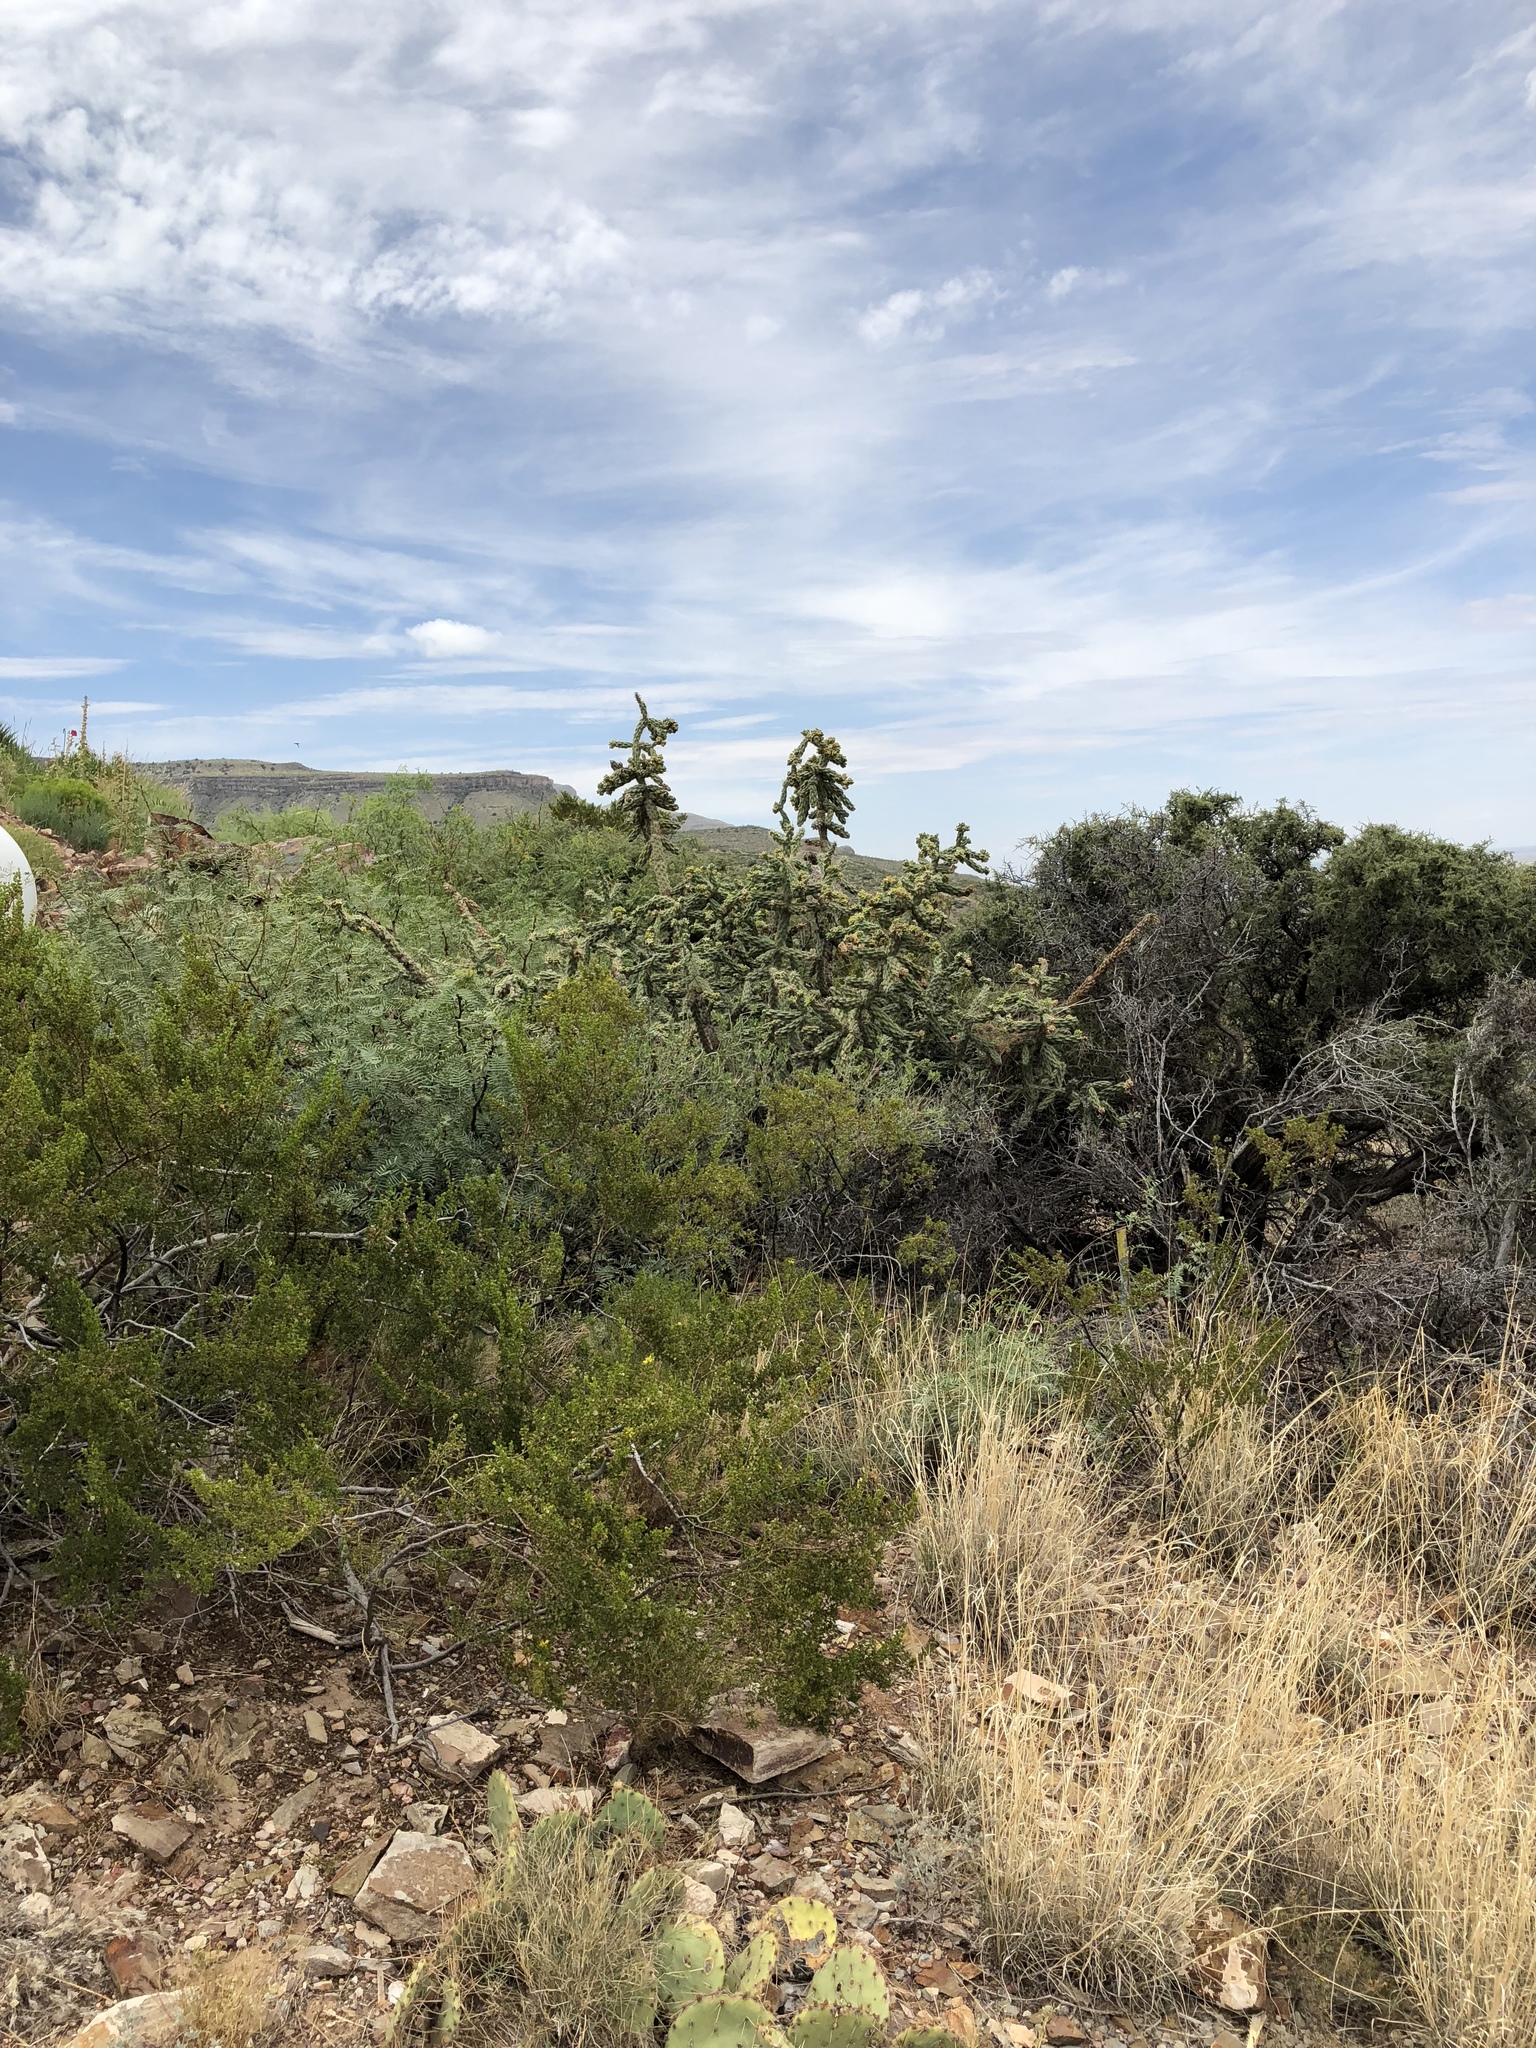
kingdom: Plantae
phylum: Tracheophyta
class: Magnoliopsida
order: Caryophyllales
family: Cactaceae
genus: Cylindropuntia
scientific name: Cylindropuntia imbricata
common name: Candelabrum cactus
